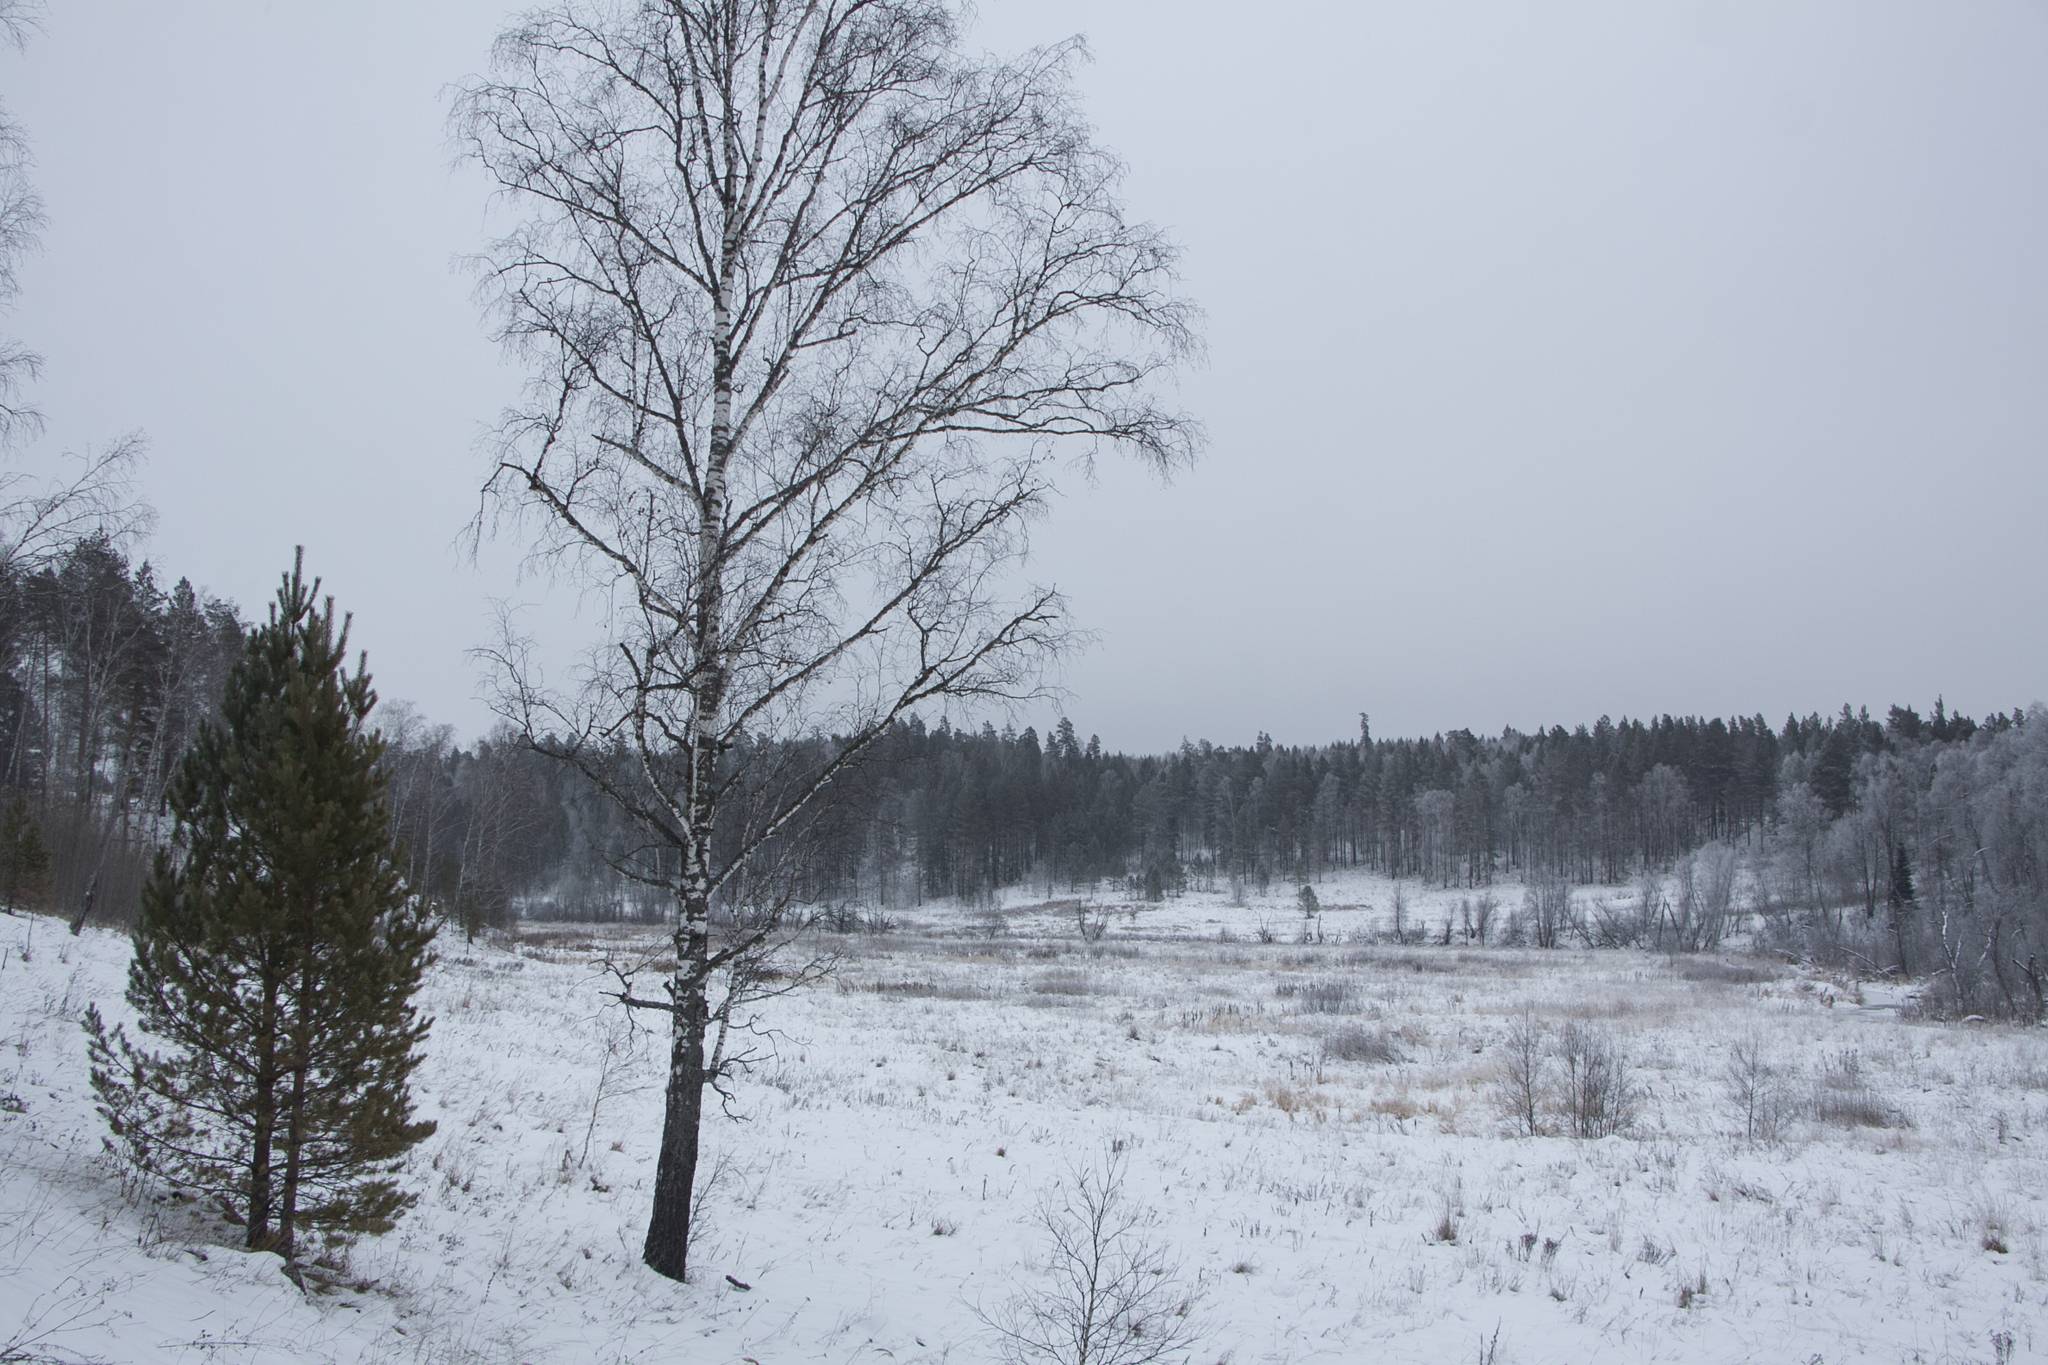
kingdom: Plantae
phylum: Tracheophyta
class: Magnoliopsida
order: Fagales
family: Betulaceae
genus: Betula
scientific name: Betula pendula
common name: Silver birch
